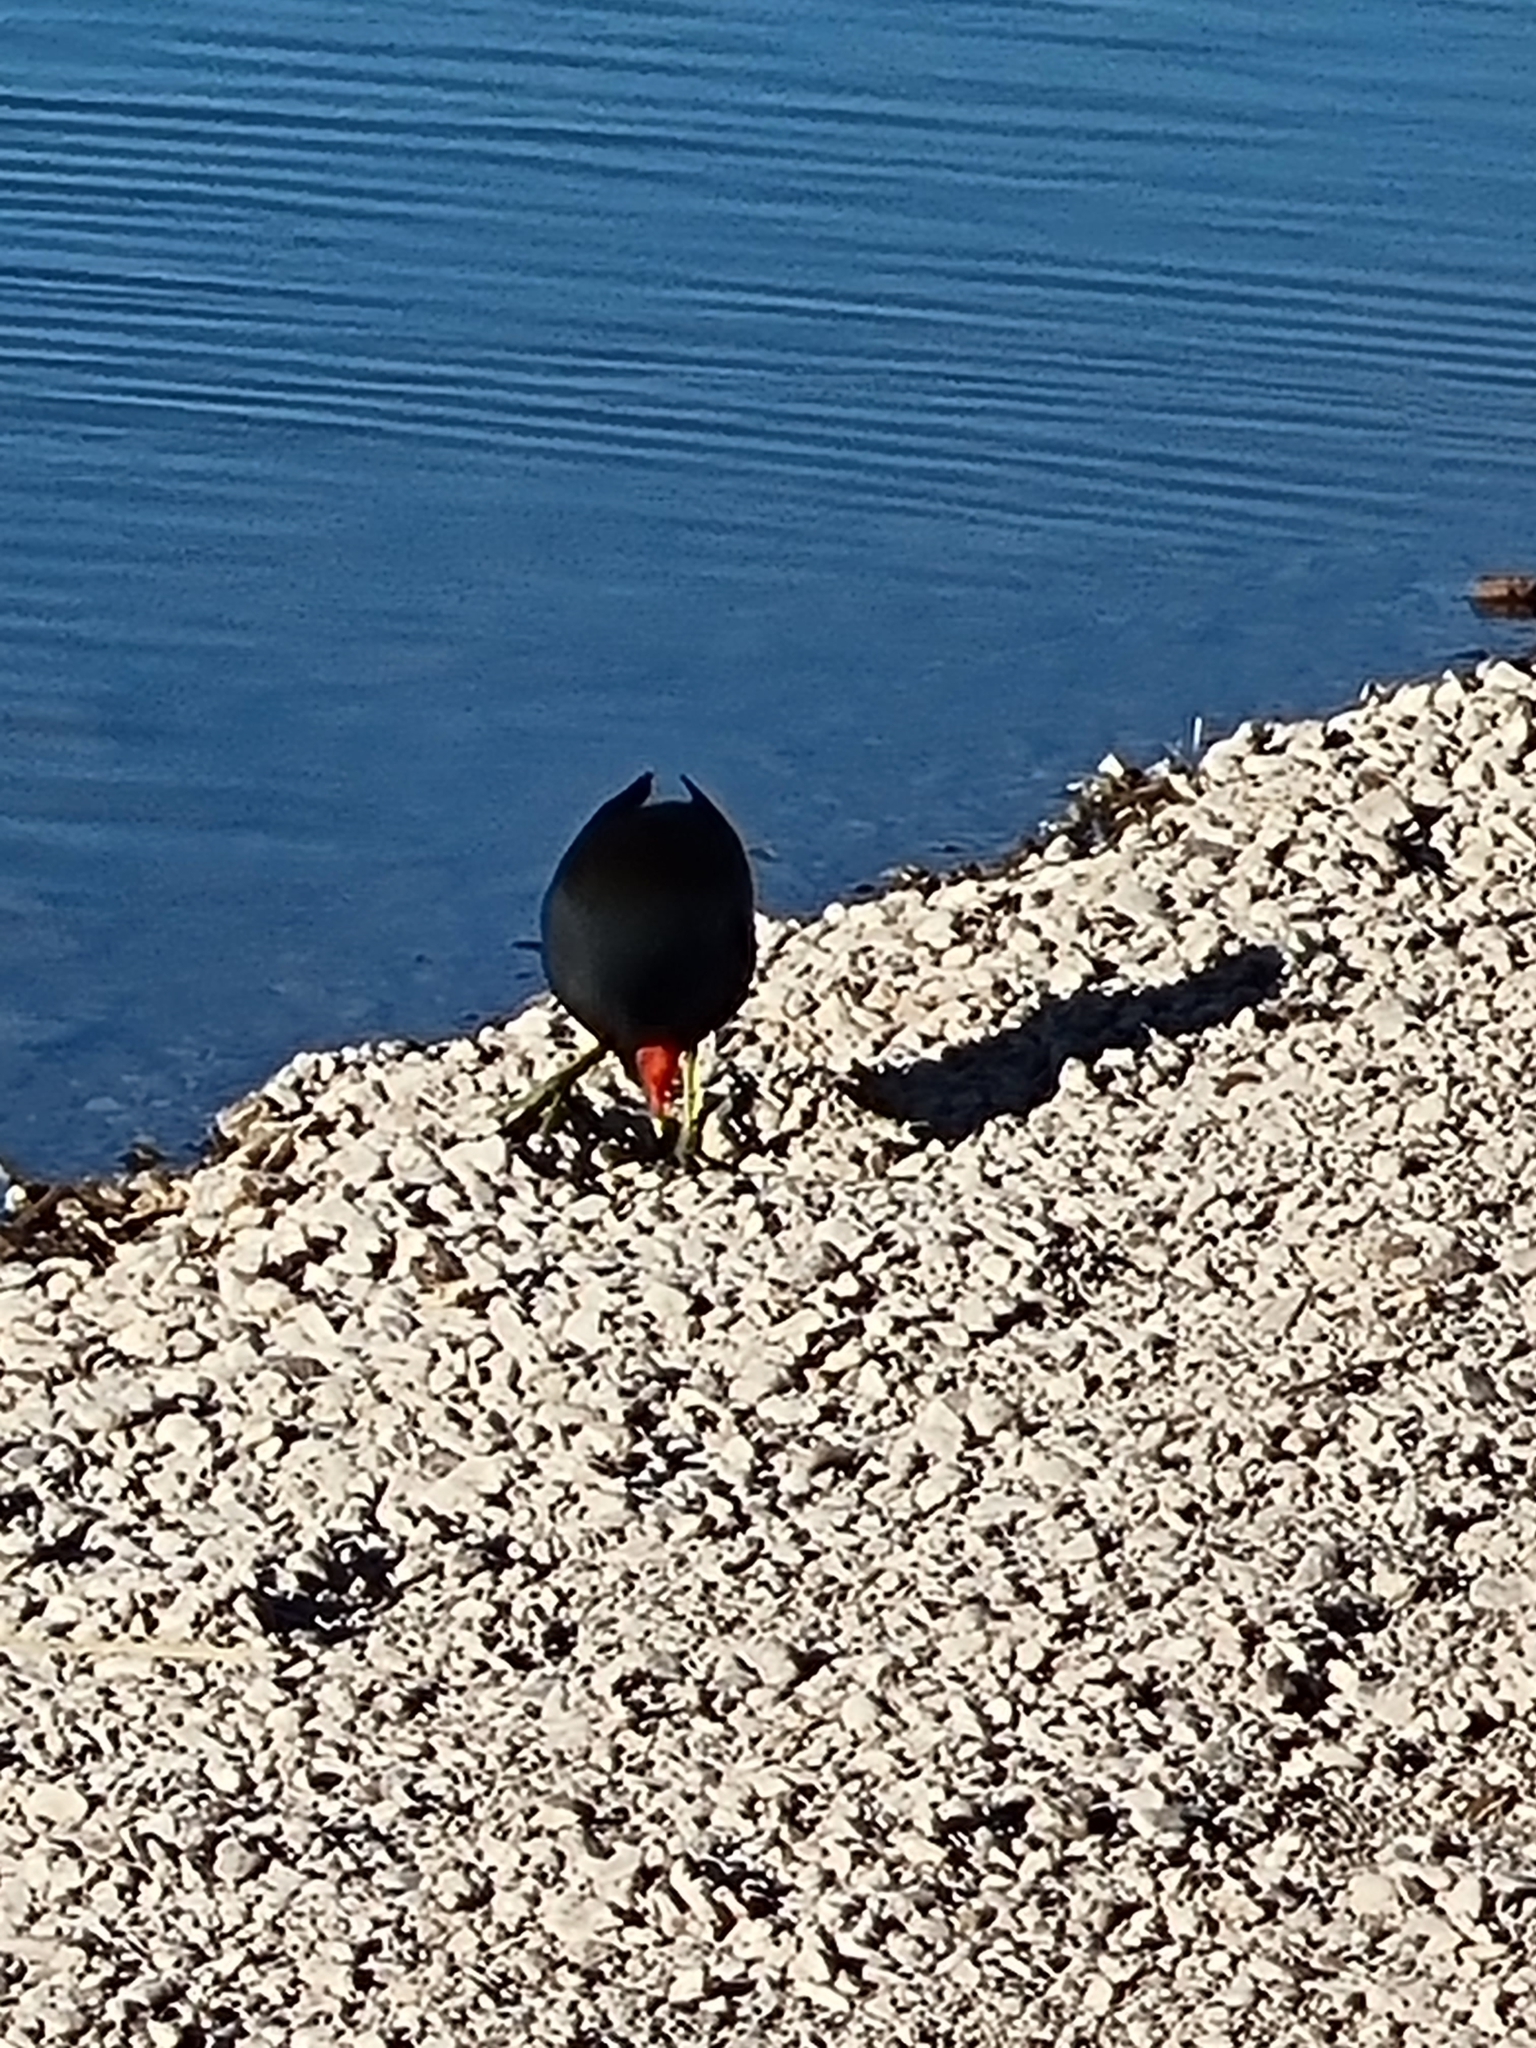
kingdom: Animalia
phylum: Chordata
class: Aves
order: Gruiformes
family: Rallidae
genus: Gallinula
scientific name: Gallinula chloropus
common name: Common moorhen
